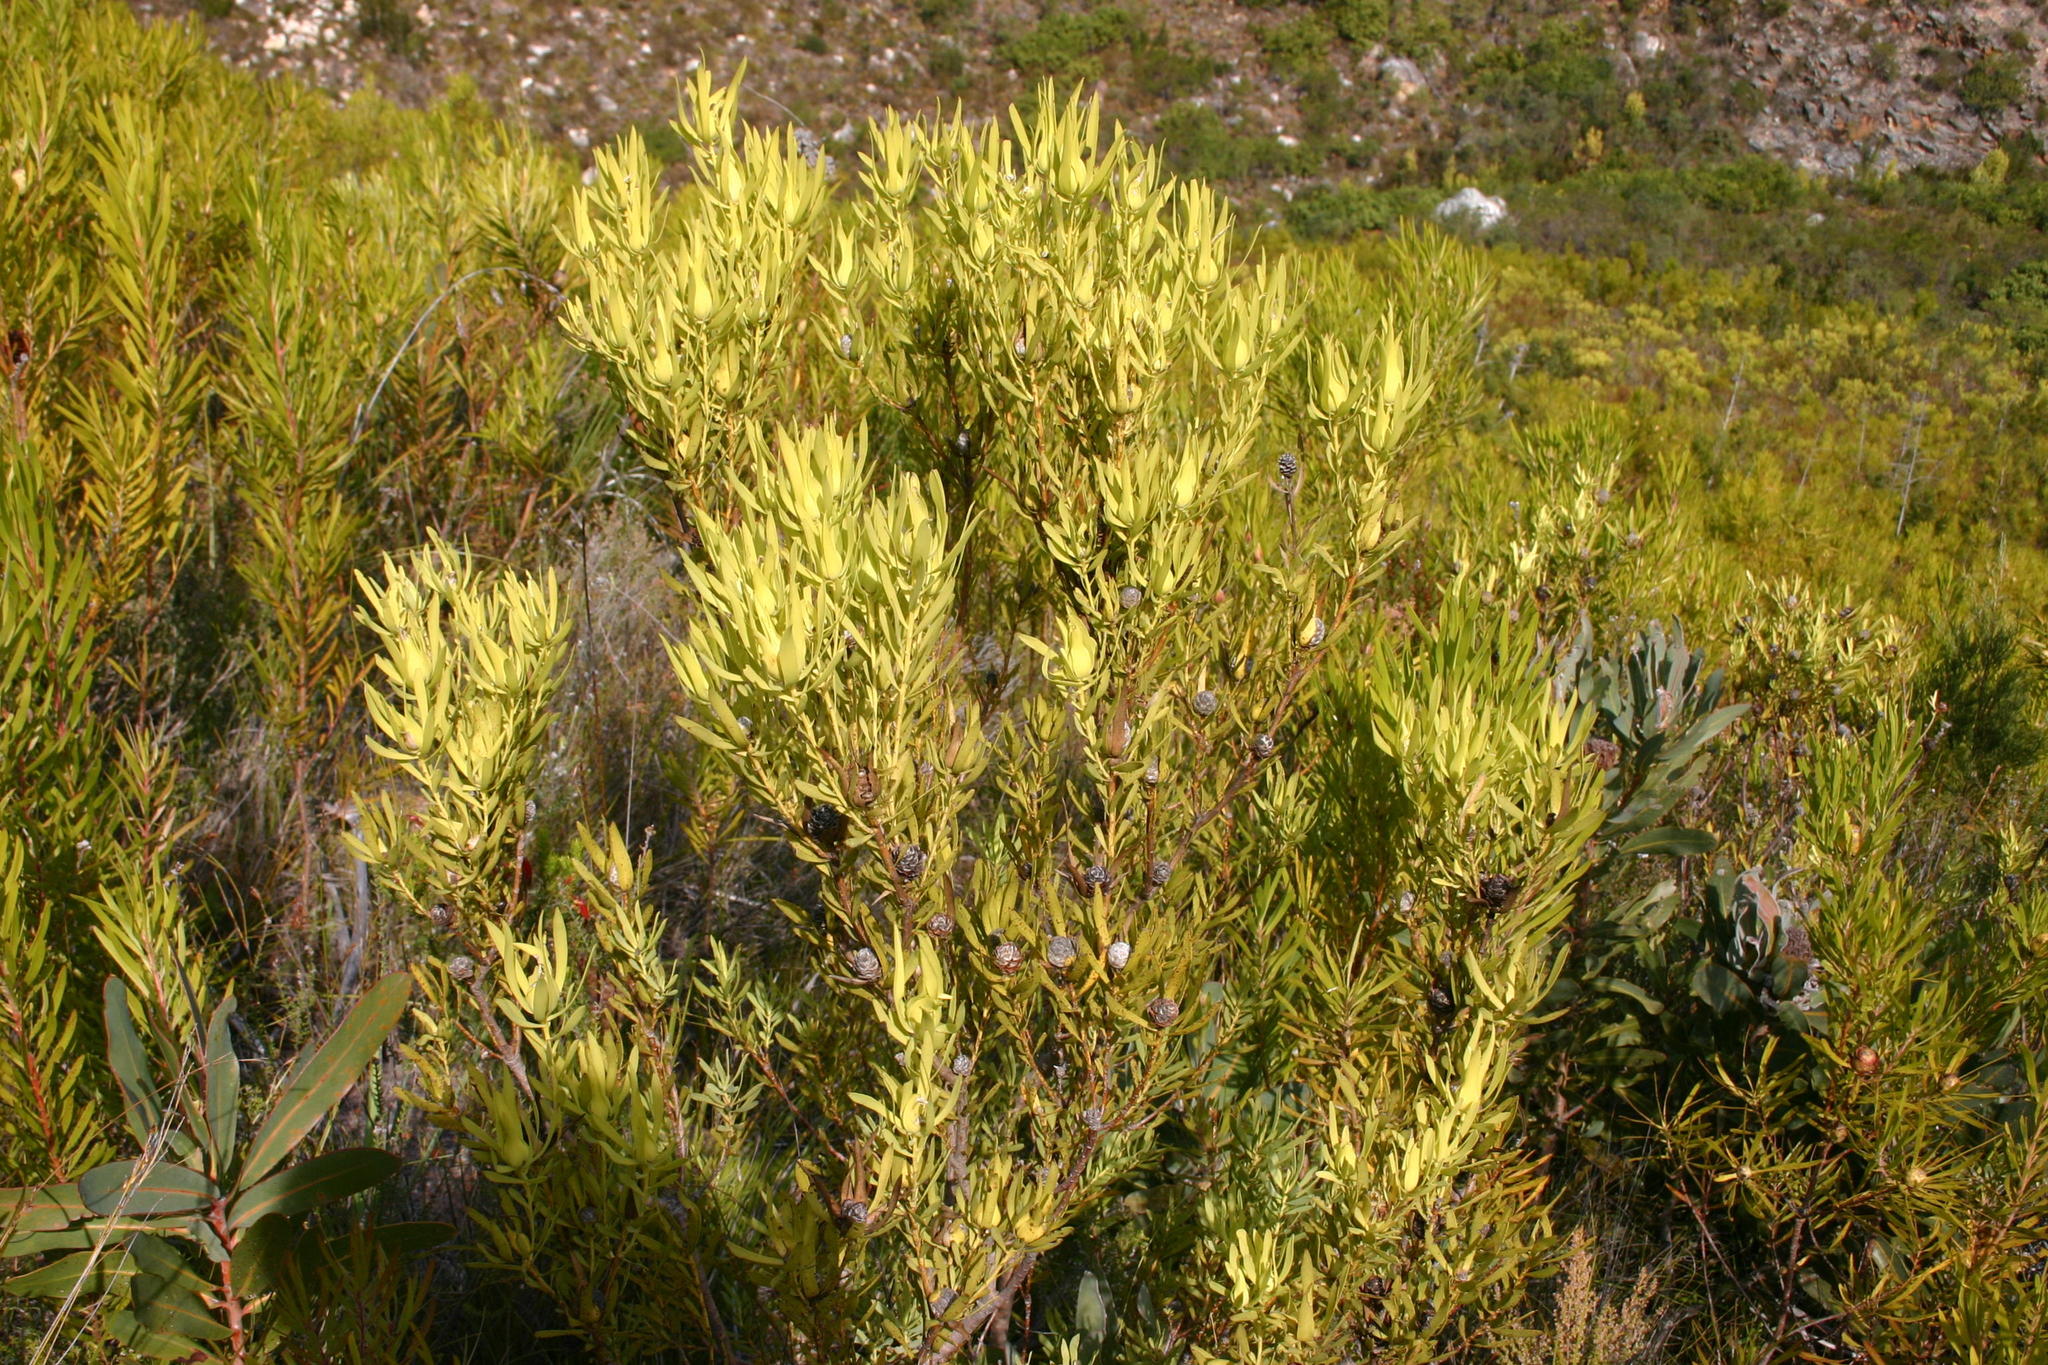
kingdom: Plantae
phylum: Tracheophyta
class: Magnoliopsida
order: Proteales
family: Proteaceae
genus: Leucadendron
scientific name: Leucadendron salignum
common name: Common sunshine conebush
